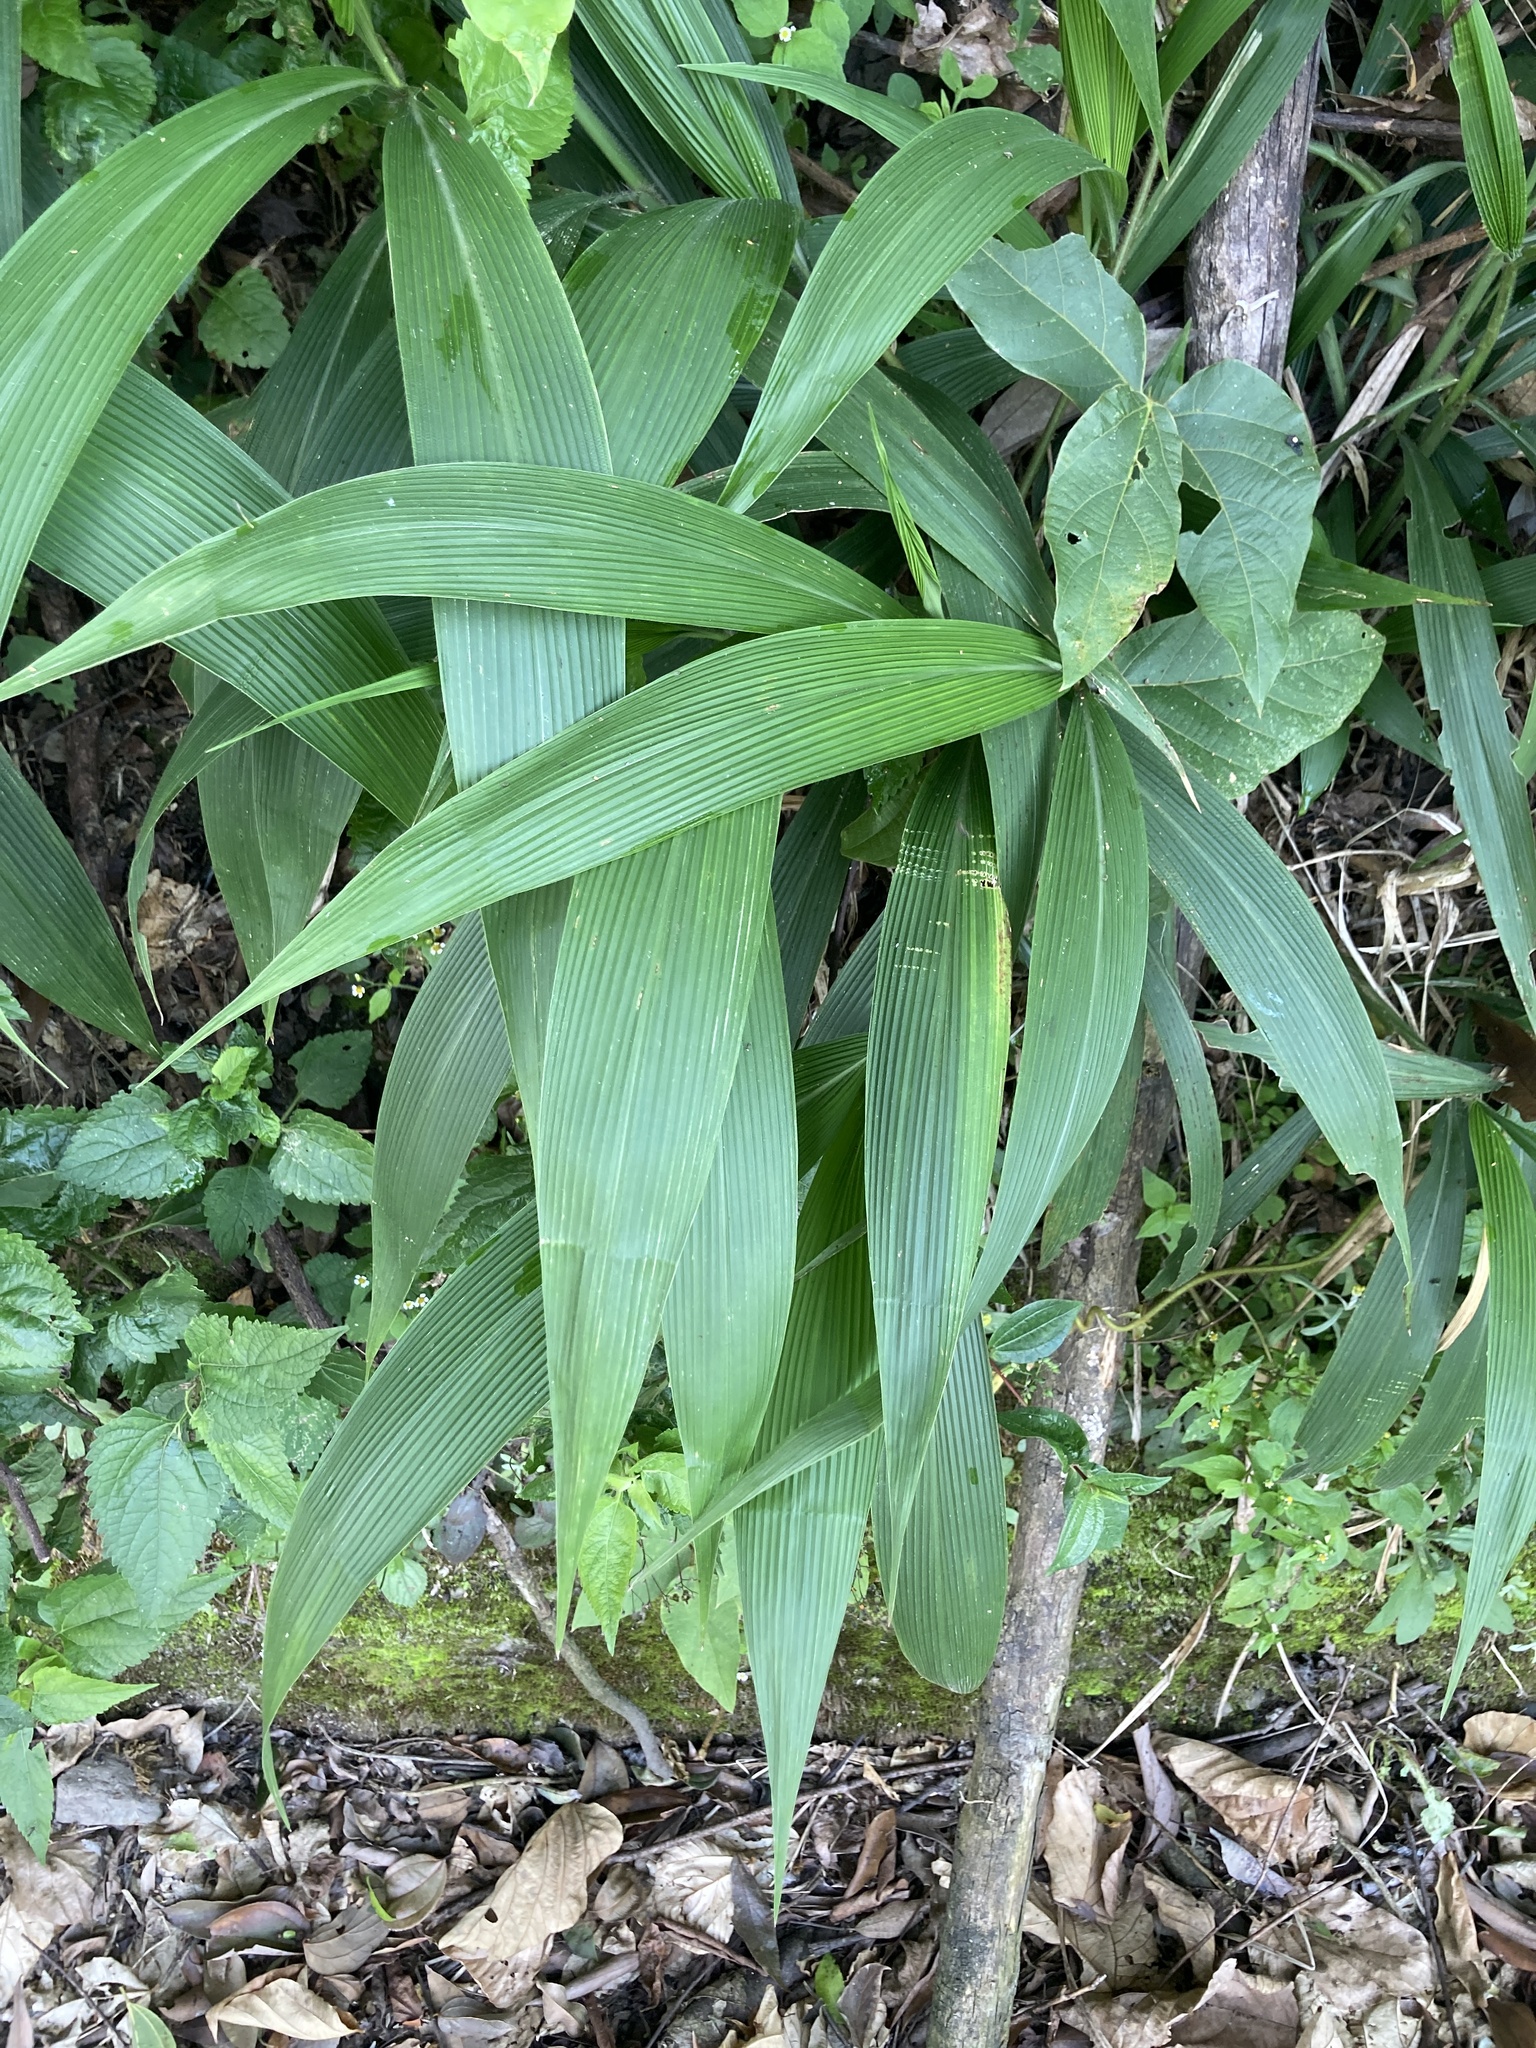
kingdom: Plantae
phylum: Tracheophyta
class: Liliopsida
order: Poales
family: Poaceae
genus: Setaria
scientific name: Setaria palmifolia
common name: Broadleaved bristlegrass
